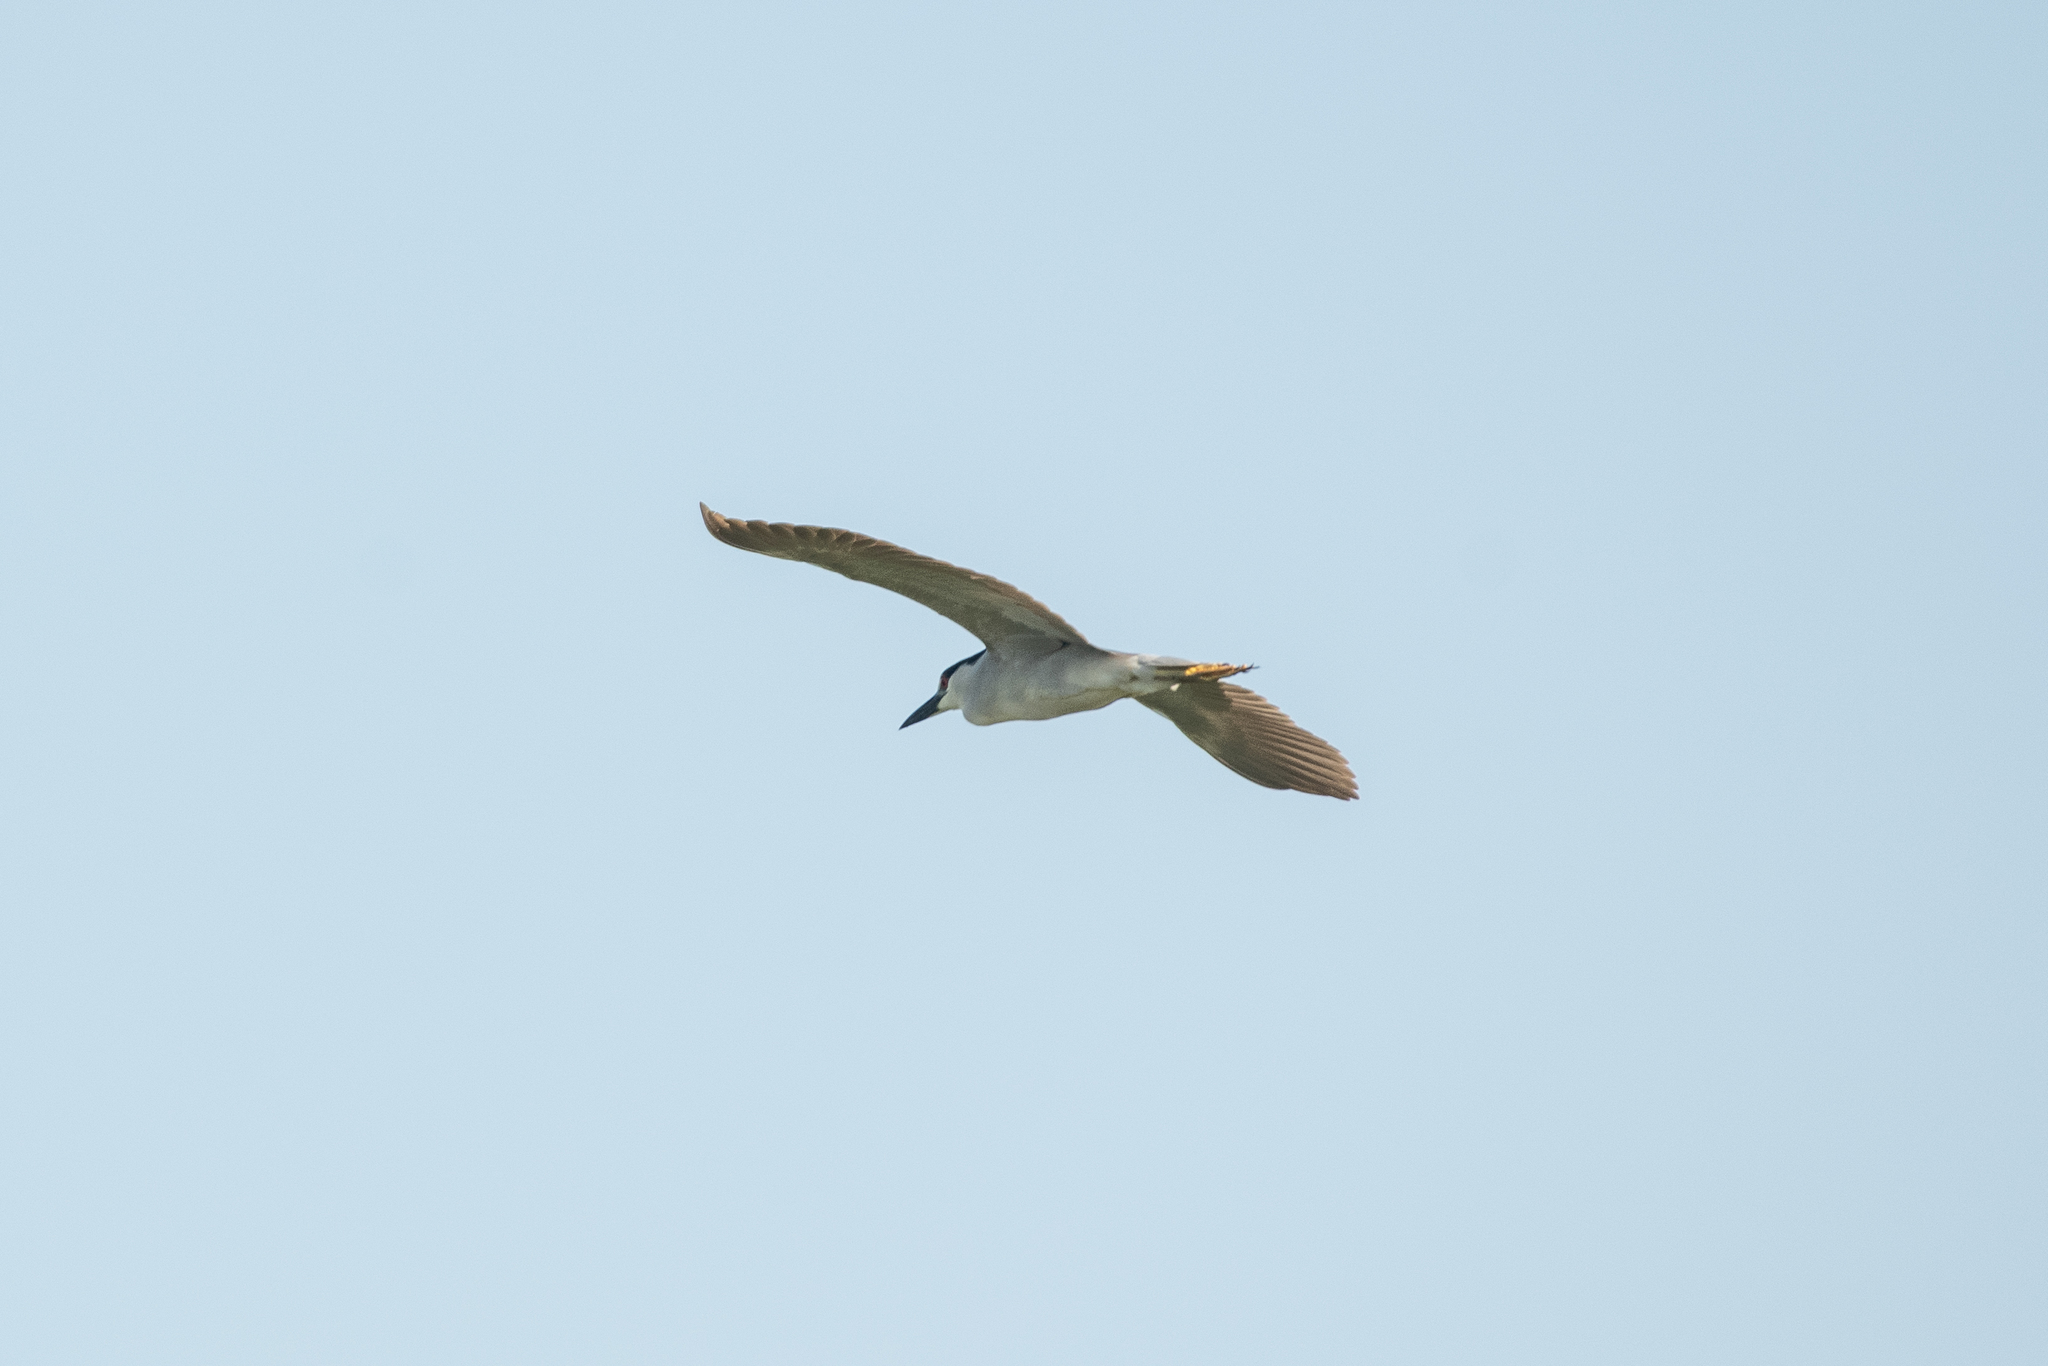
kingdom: Animalia
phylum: Chordata
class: Aves
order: Pelecaniformes
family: Ardeidae
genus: Nycticorax
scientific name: Nycticorax nycticorax
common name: Black-crowned night heron
